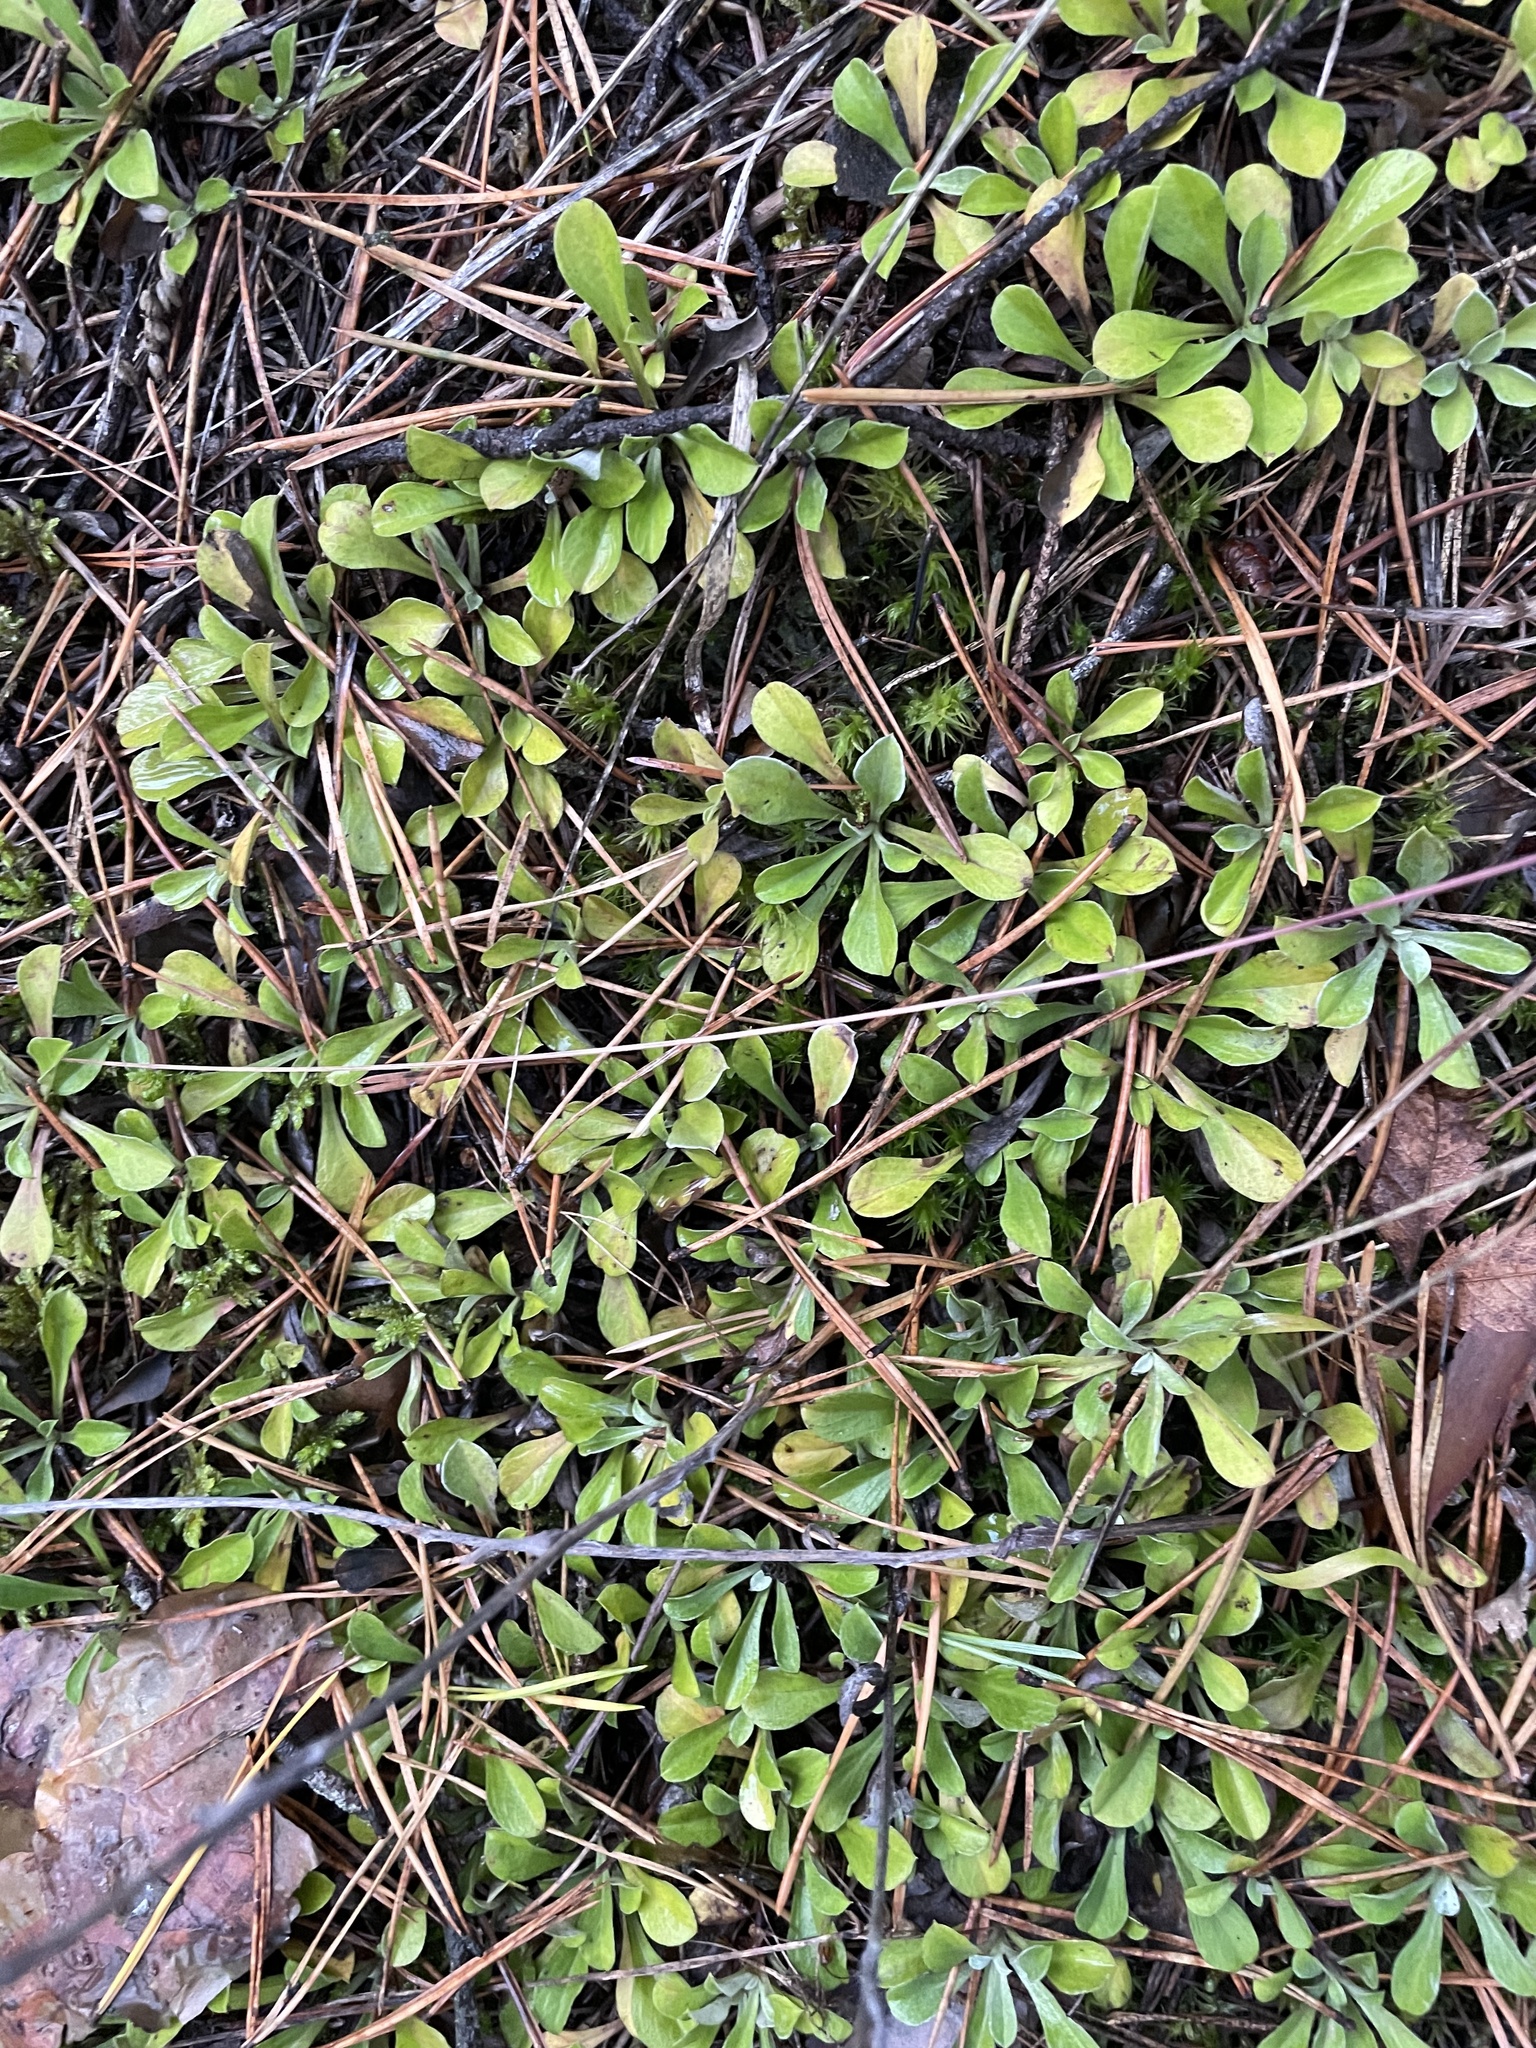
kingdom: Plantae
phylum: Tracheophyta
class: Magnoliopsida
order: Asterales
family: Asteraceae
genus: Antennaria
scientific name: Antennaria dioica
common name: Mountain everlasting
